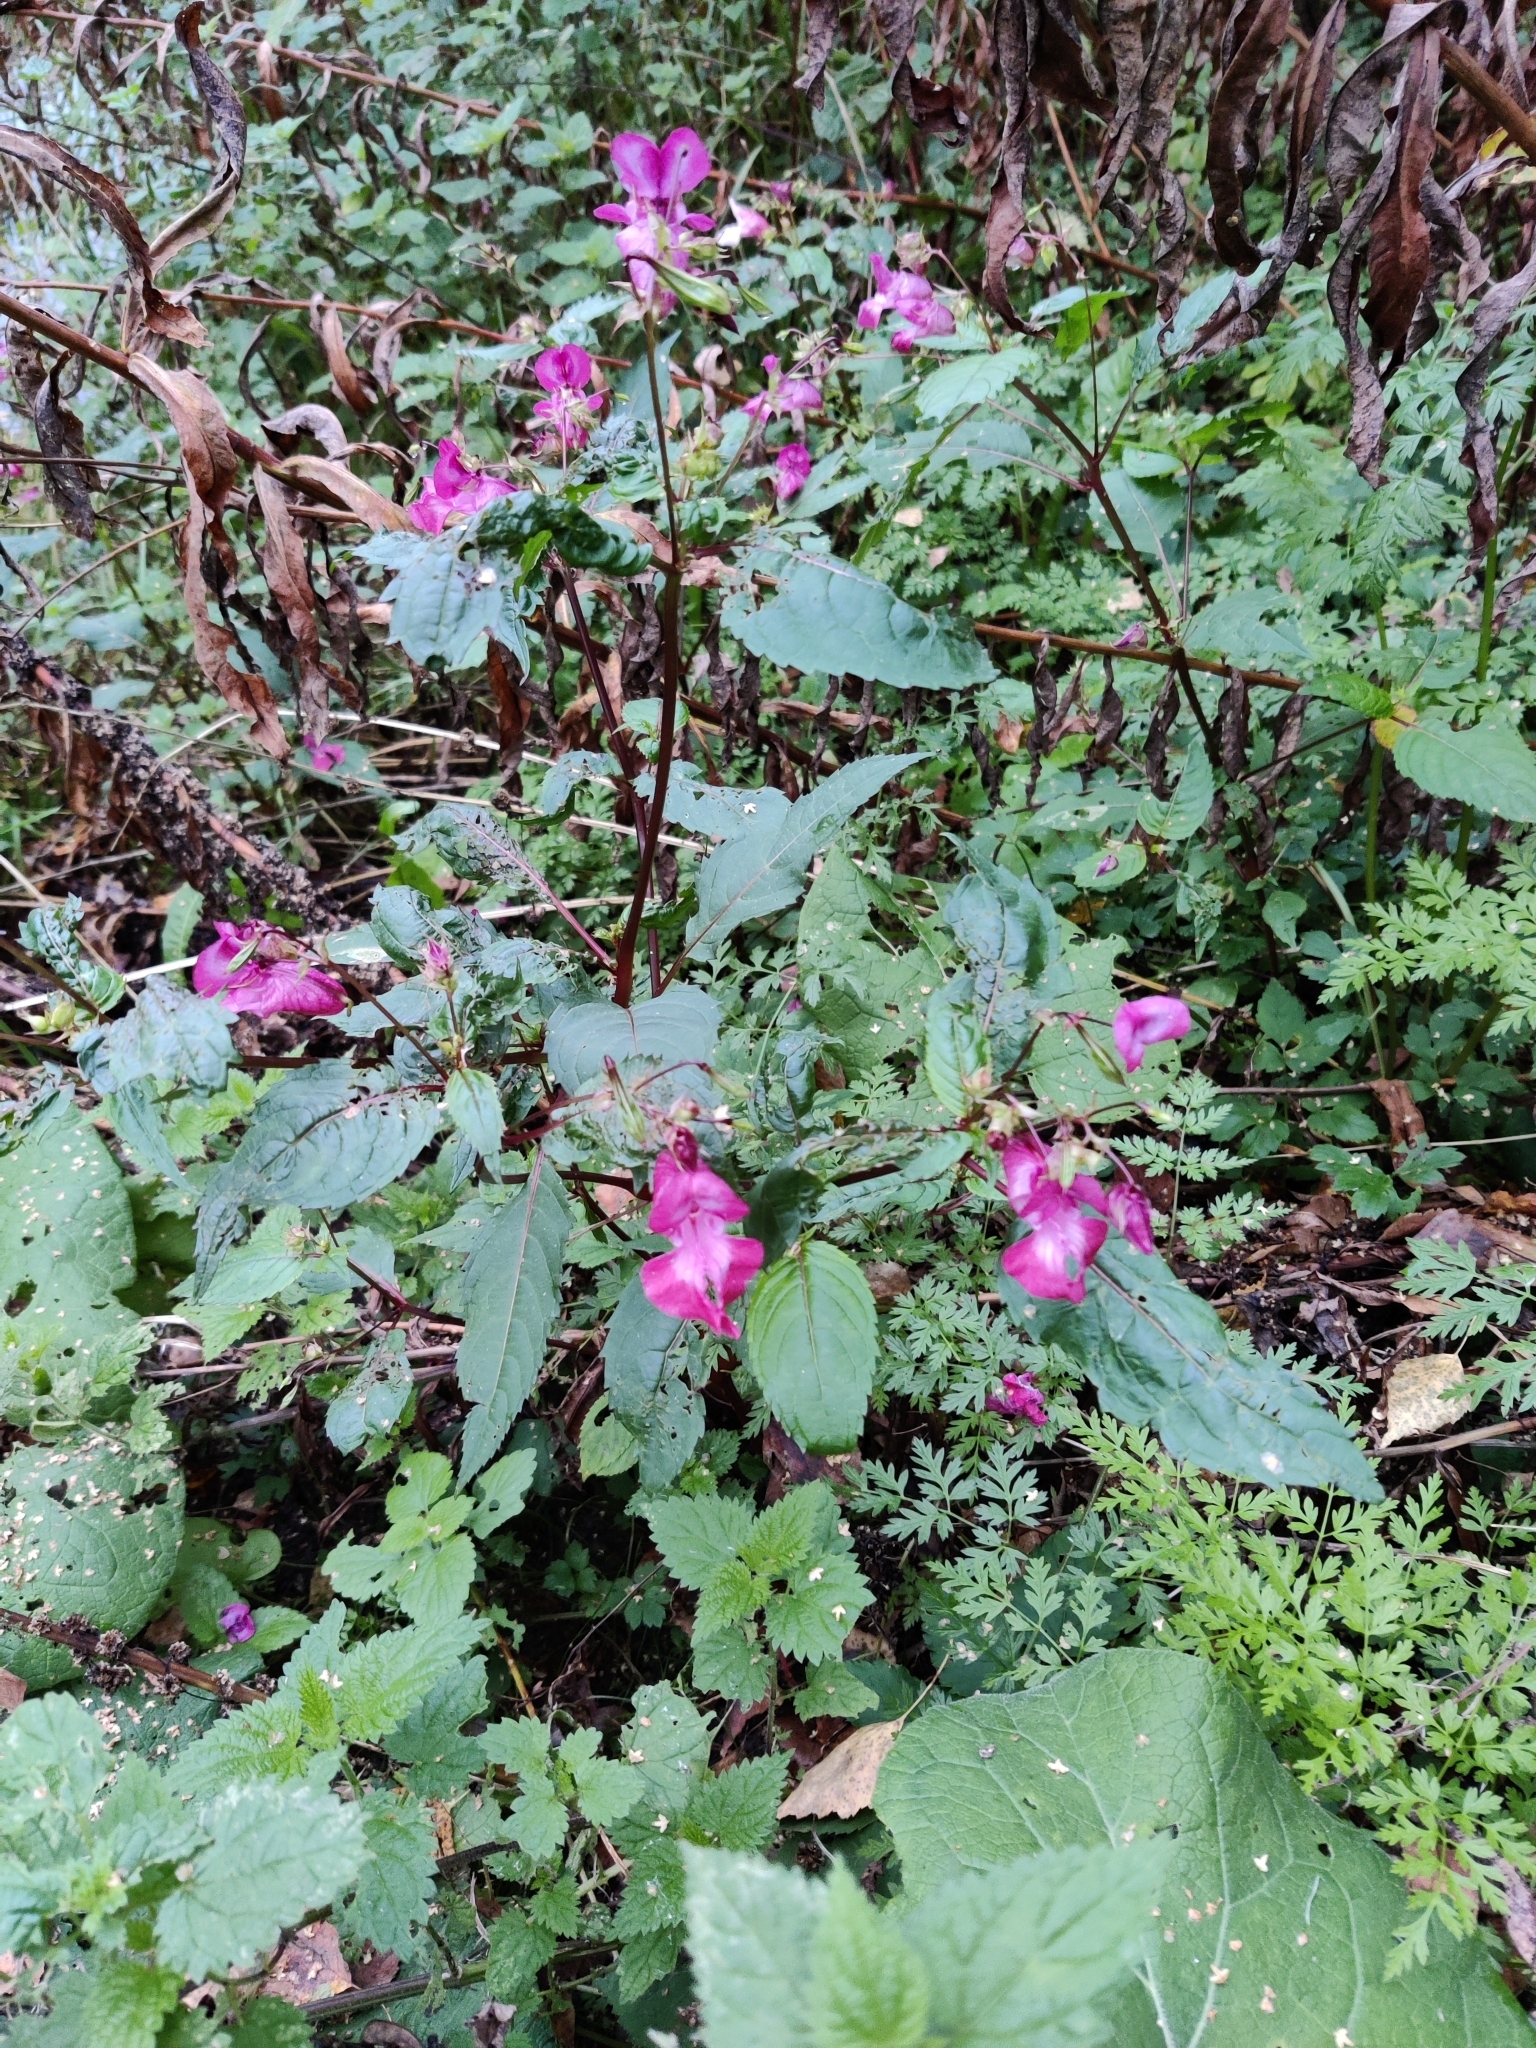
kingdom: Plantae
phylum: Tracheophyta
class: Magnoliopsida
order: Ericales
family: Balsaminaceae
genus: Impatiens
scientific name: Impatiens glandulifera
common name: Himalayan balsam
